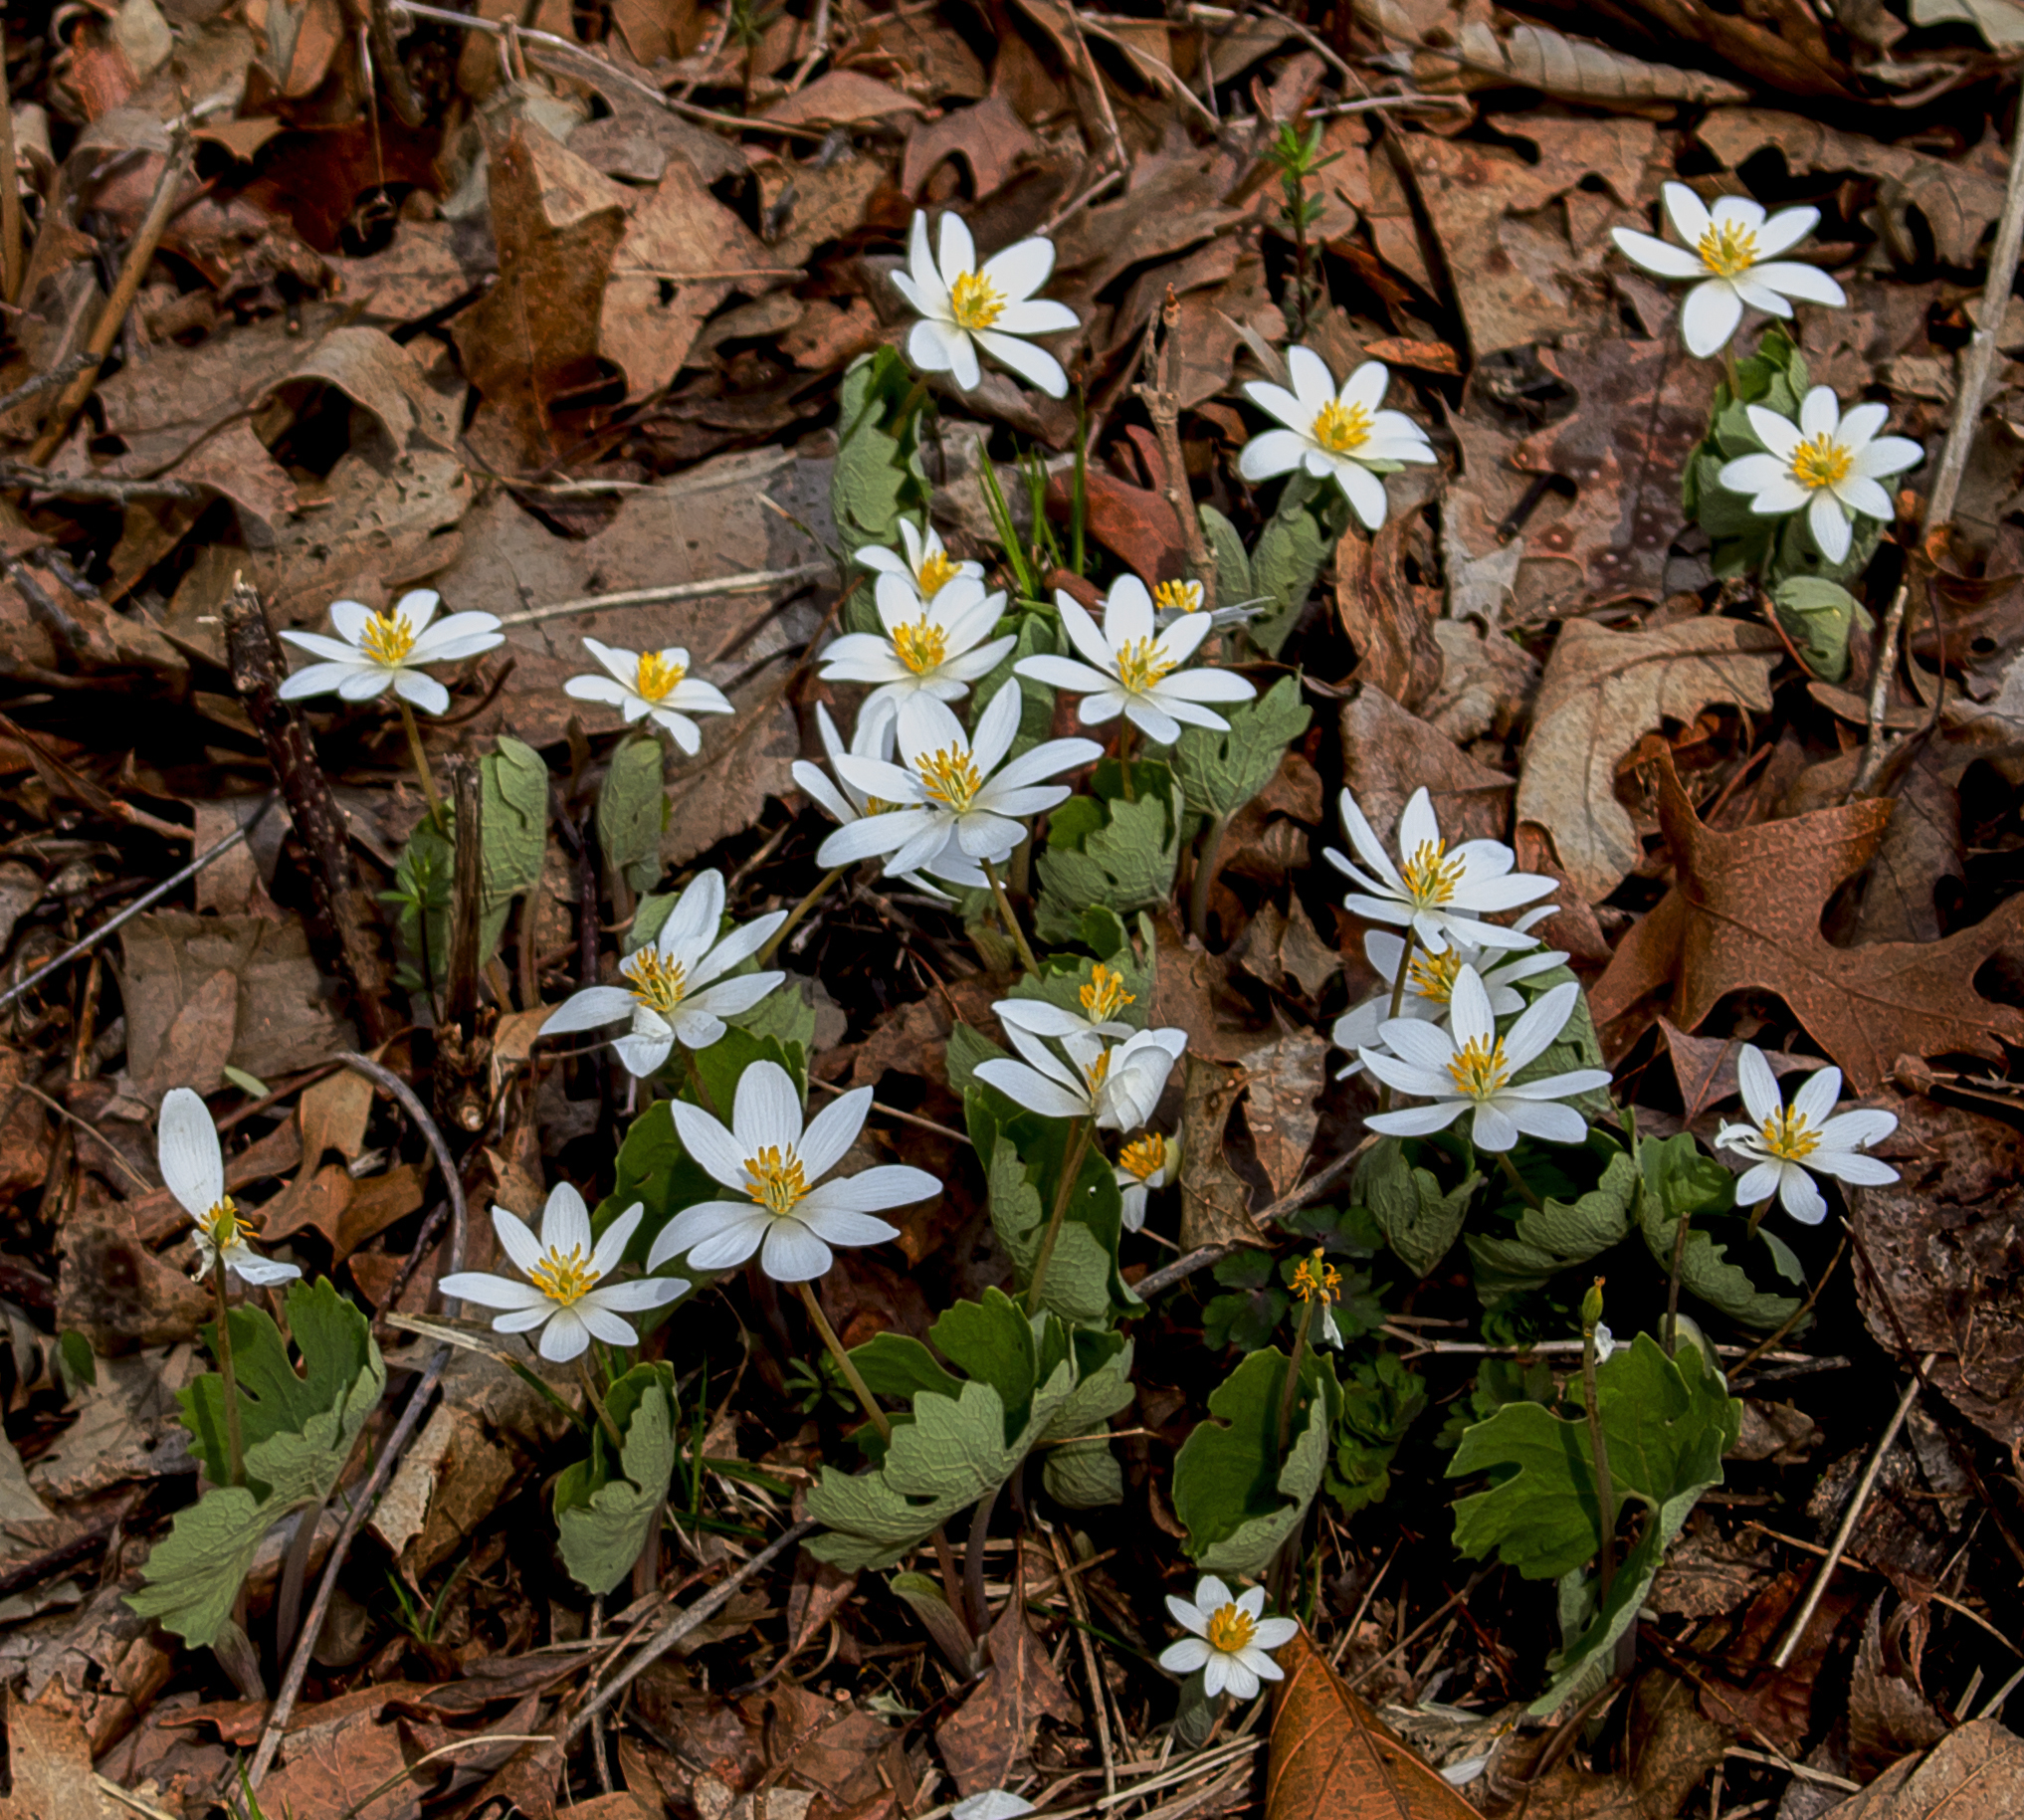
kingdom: Plantae
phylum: Tracheophyta
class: Magnoliopsida
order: Ranunculales
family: Papaveraceae
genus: Sanguinaria
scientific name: Sanguinaria canadensis
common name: Bloodroot
